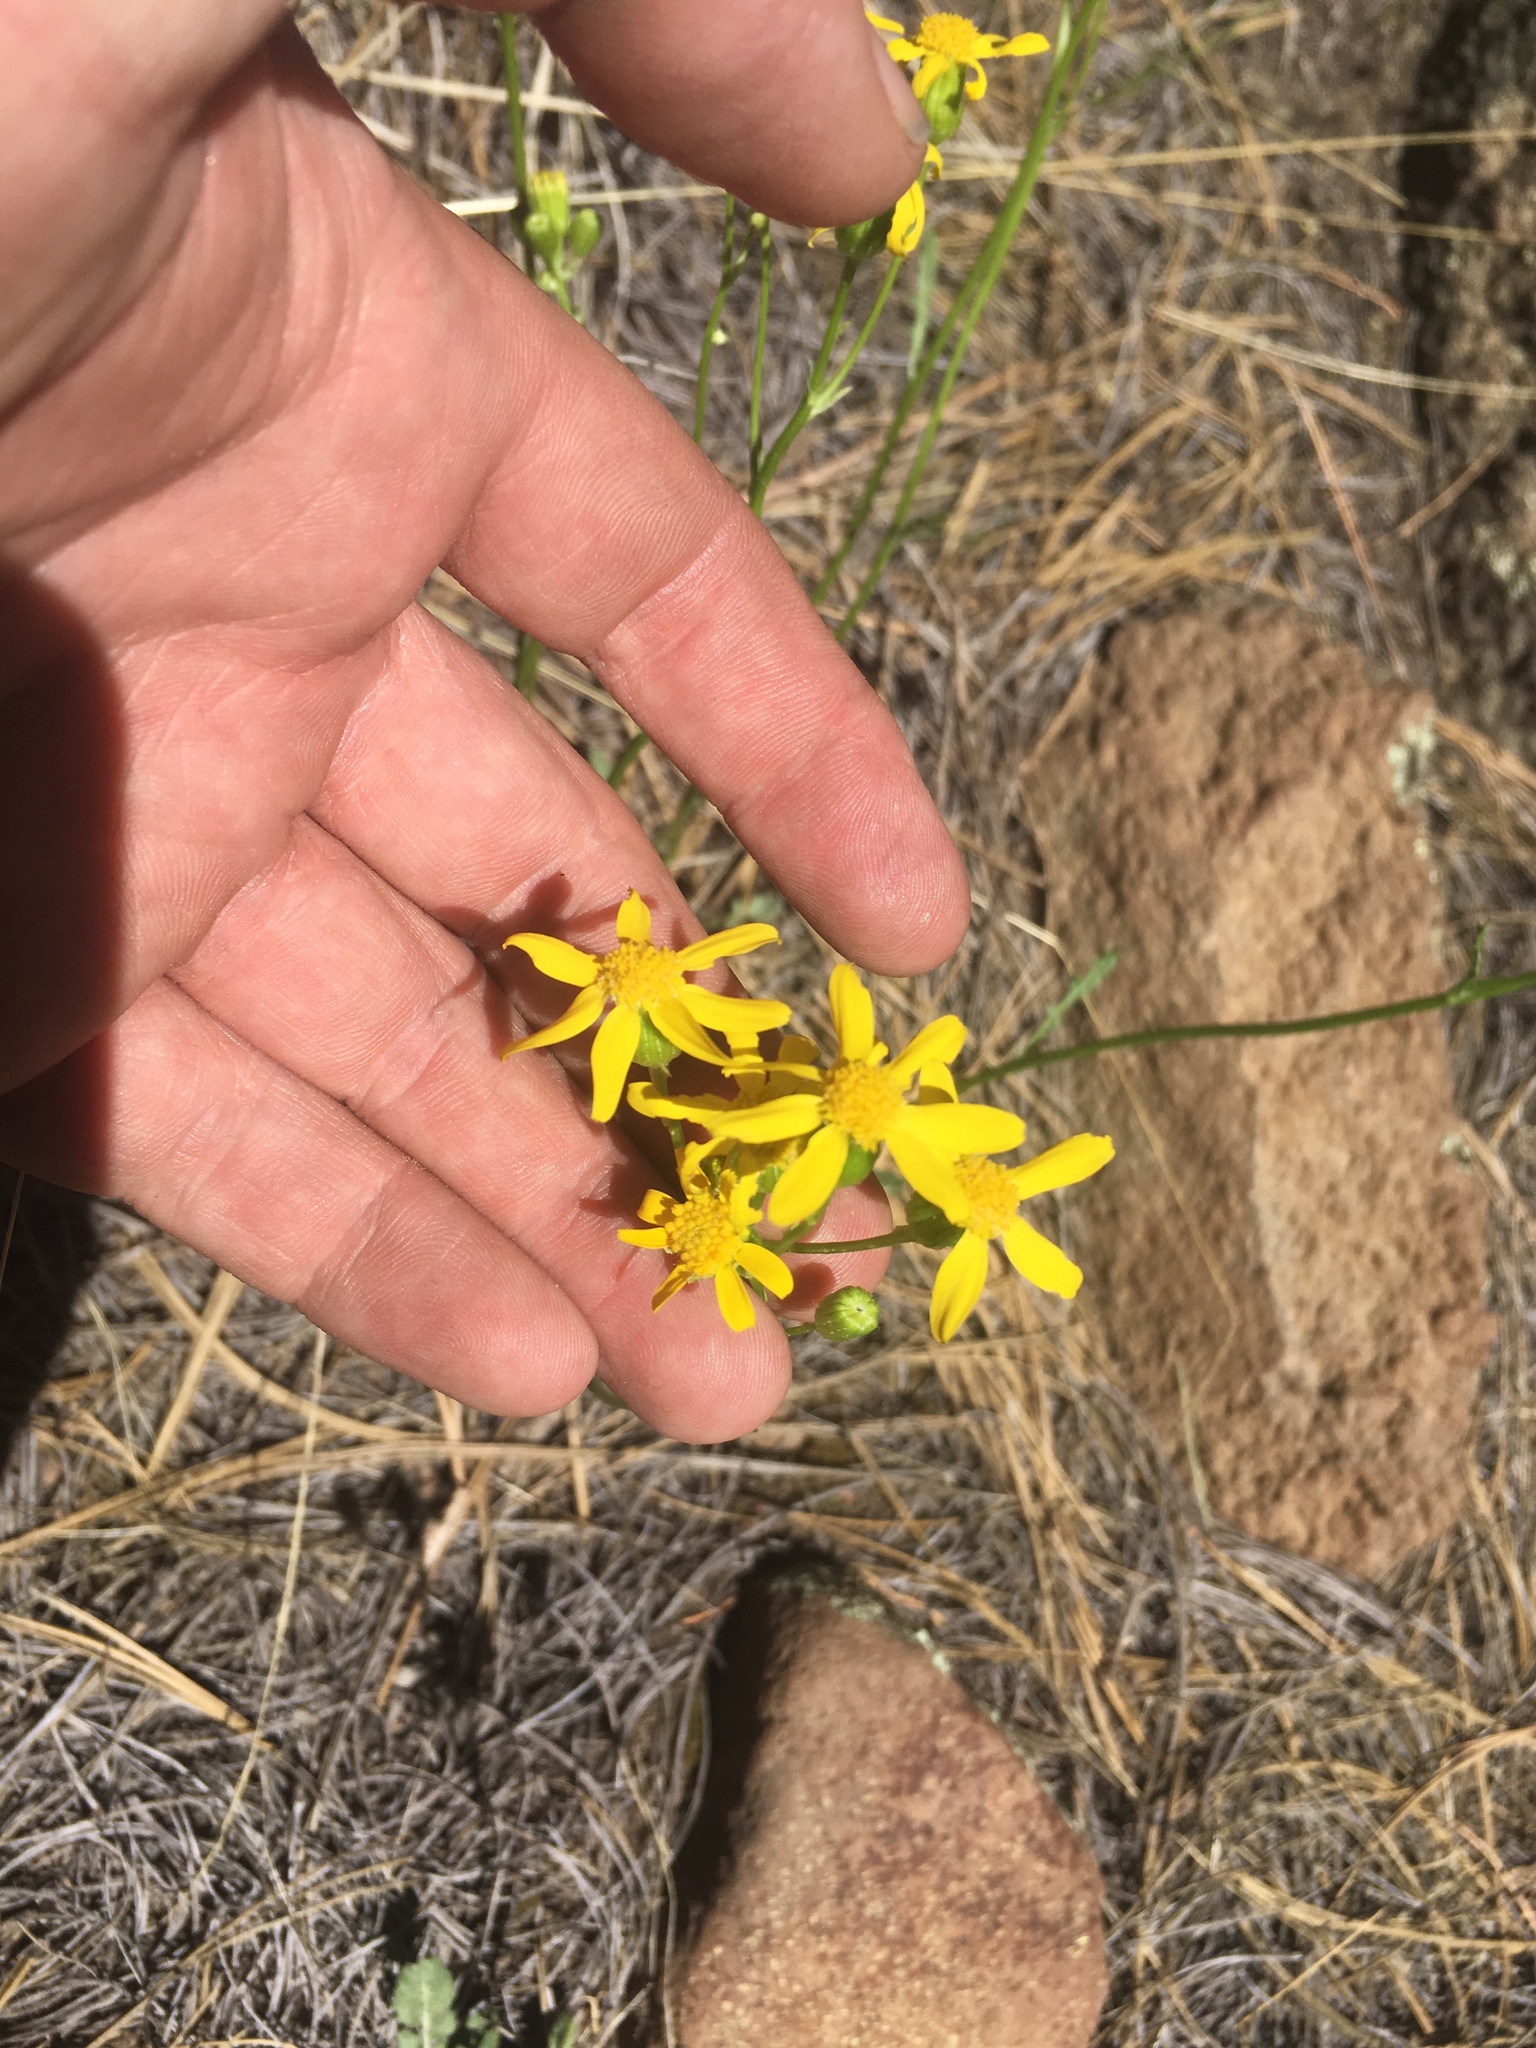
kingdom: Plantae
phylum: Tracheophyta
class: Magnoliopsida
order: Asterales
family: Asteraceae
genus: Packera
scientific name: Packera hartiana
